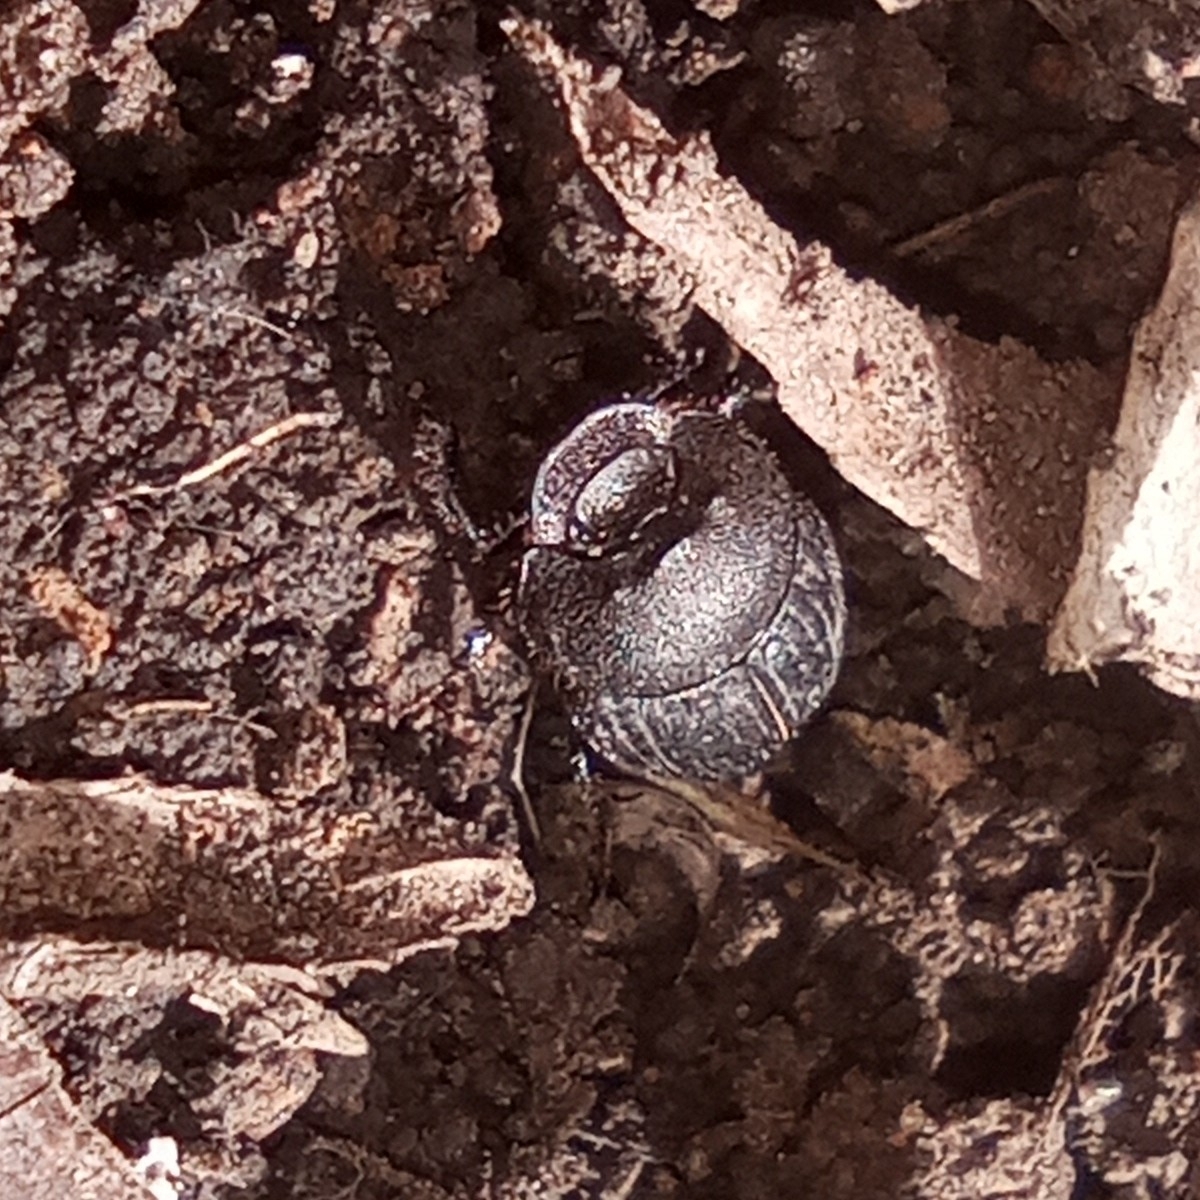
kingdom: Animalia
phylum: Arthropoda
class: Insecta
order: Coleoptera
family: Scarabaeidae
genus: Onthophagus
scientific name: Onthophagus semicornis
